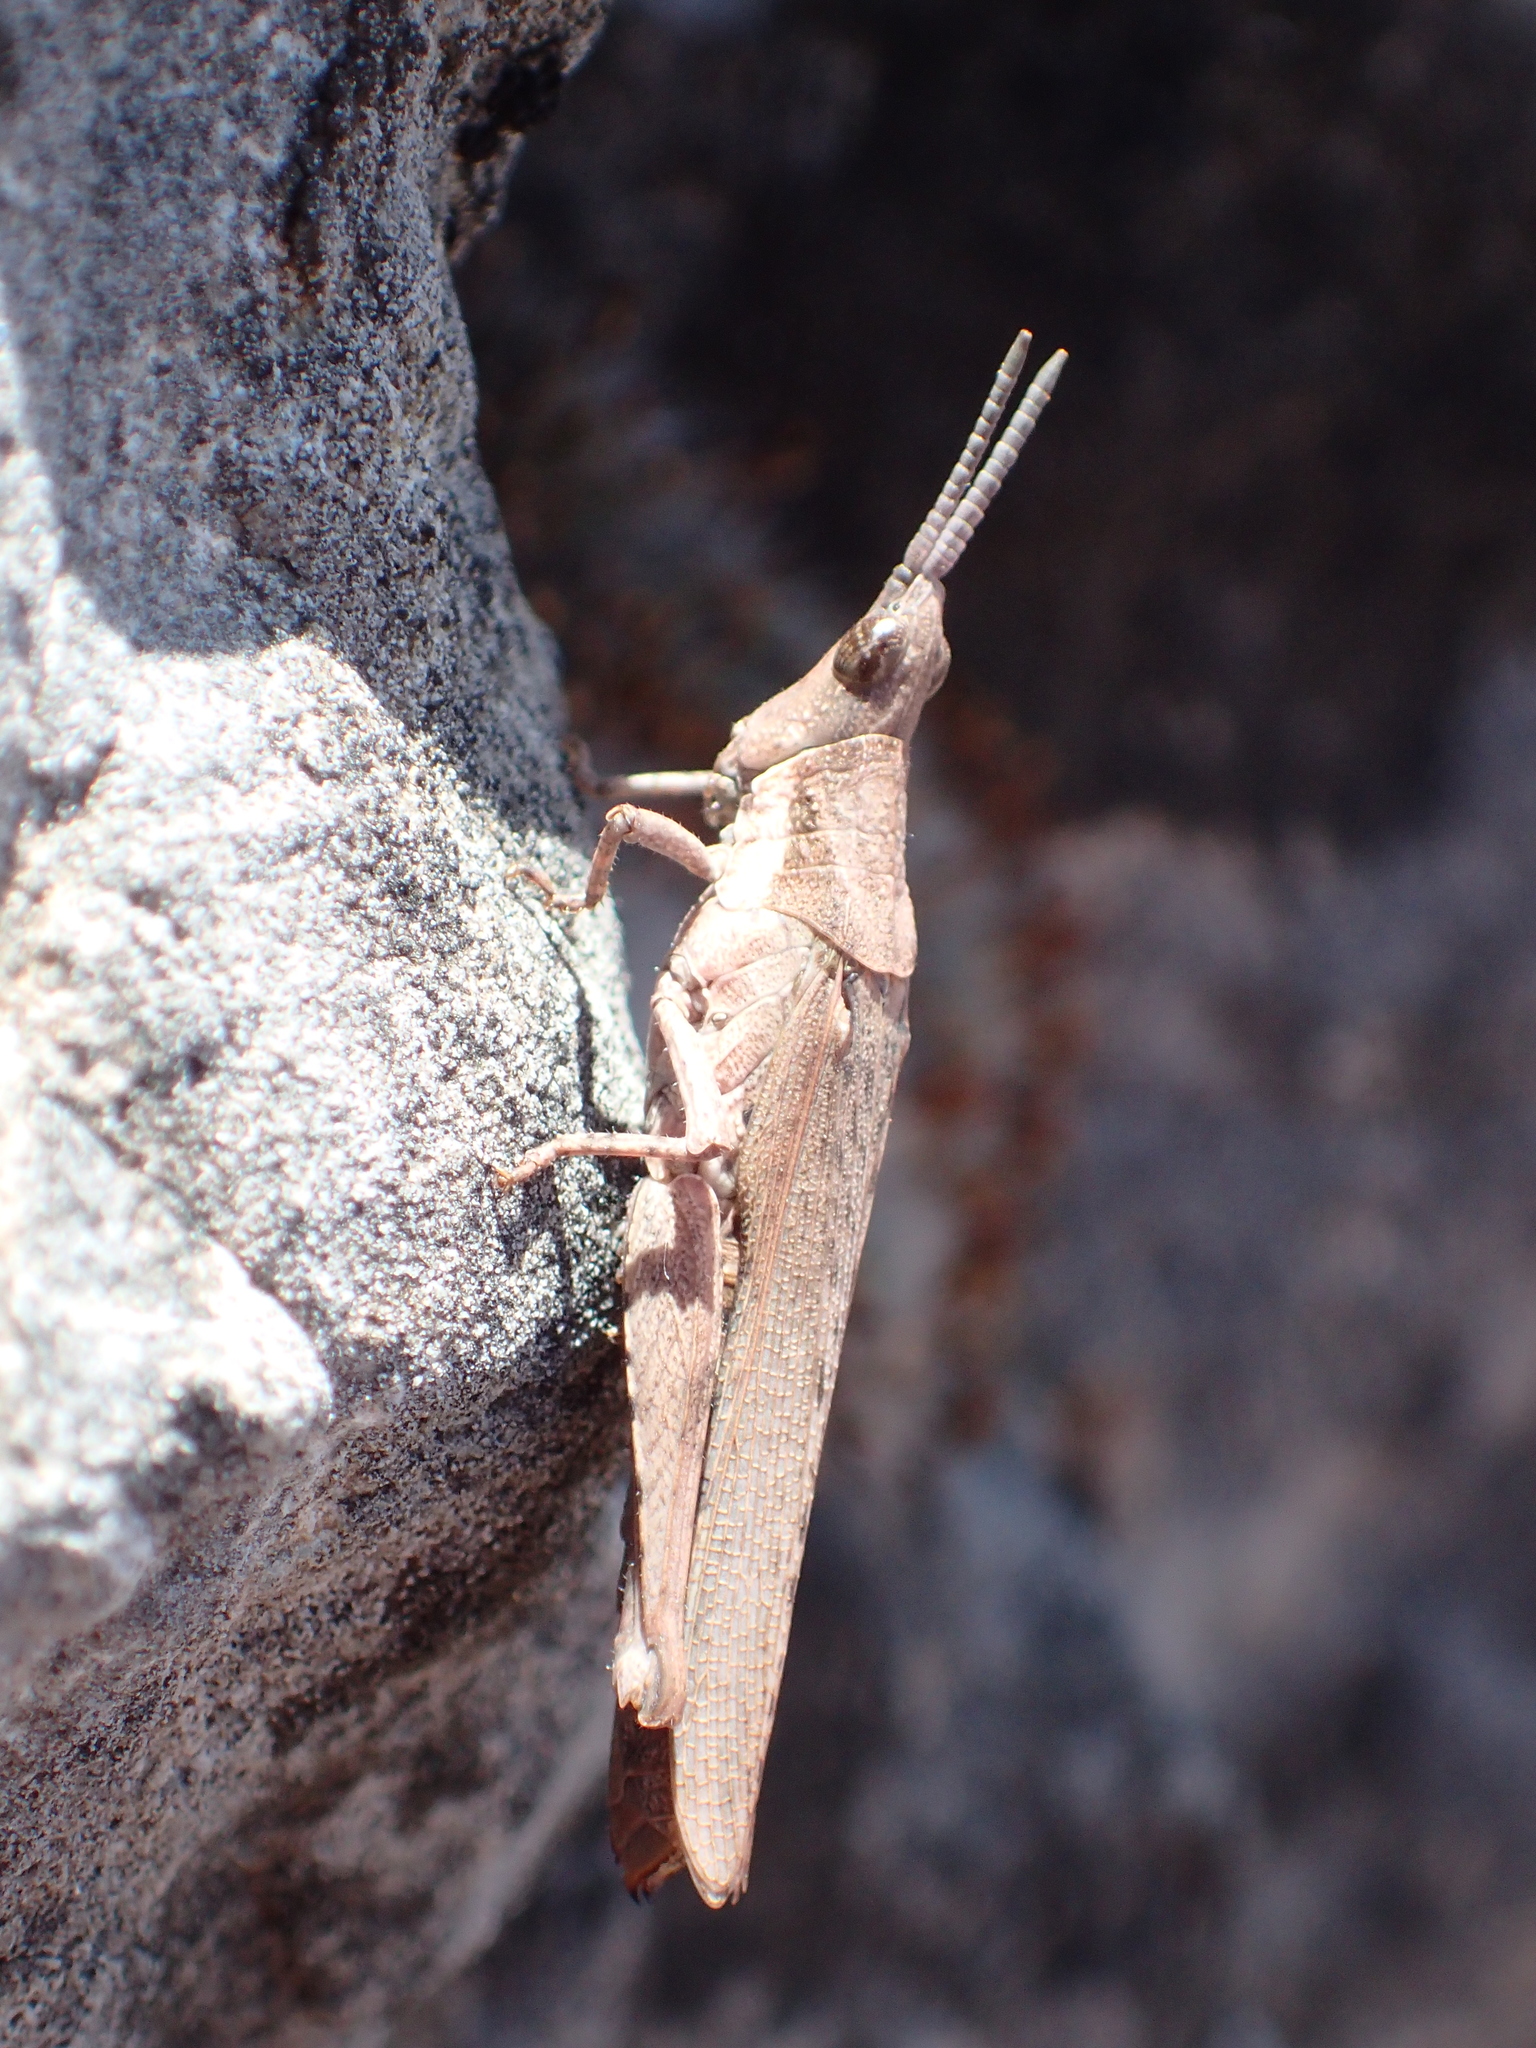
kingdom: Animalia
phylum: Arthropoda
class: Insecta
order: Orthoptera
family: Pyrgomorphidae
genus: Pyrgomorpha
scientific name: Pyrgomorpha conica
